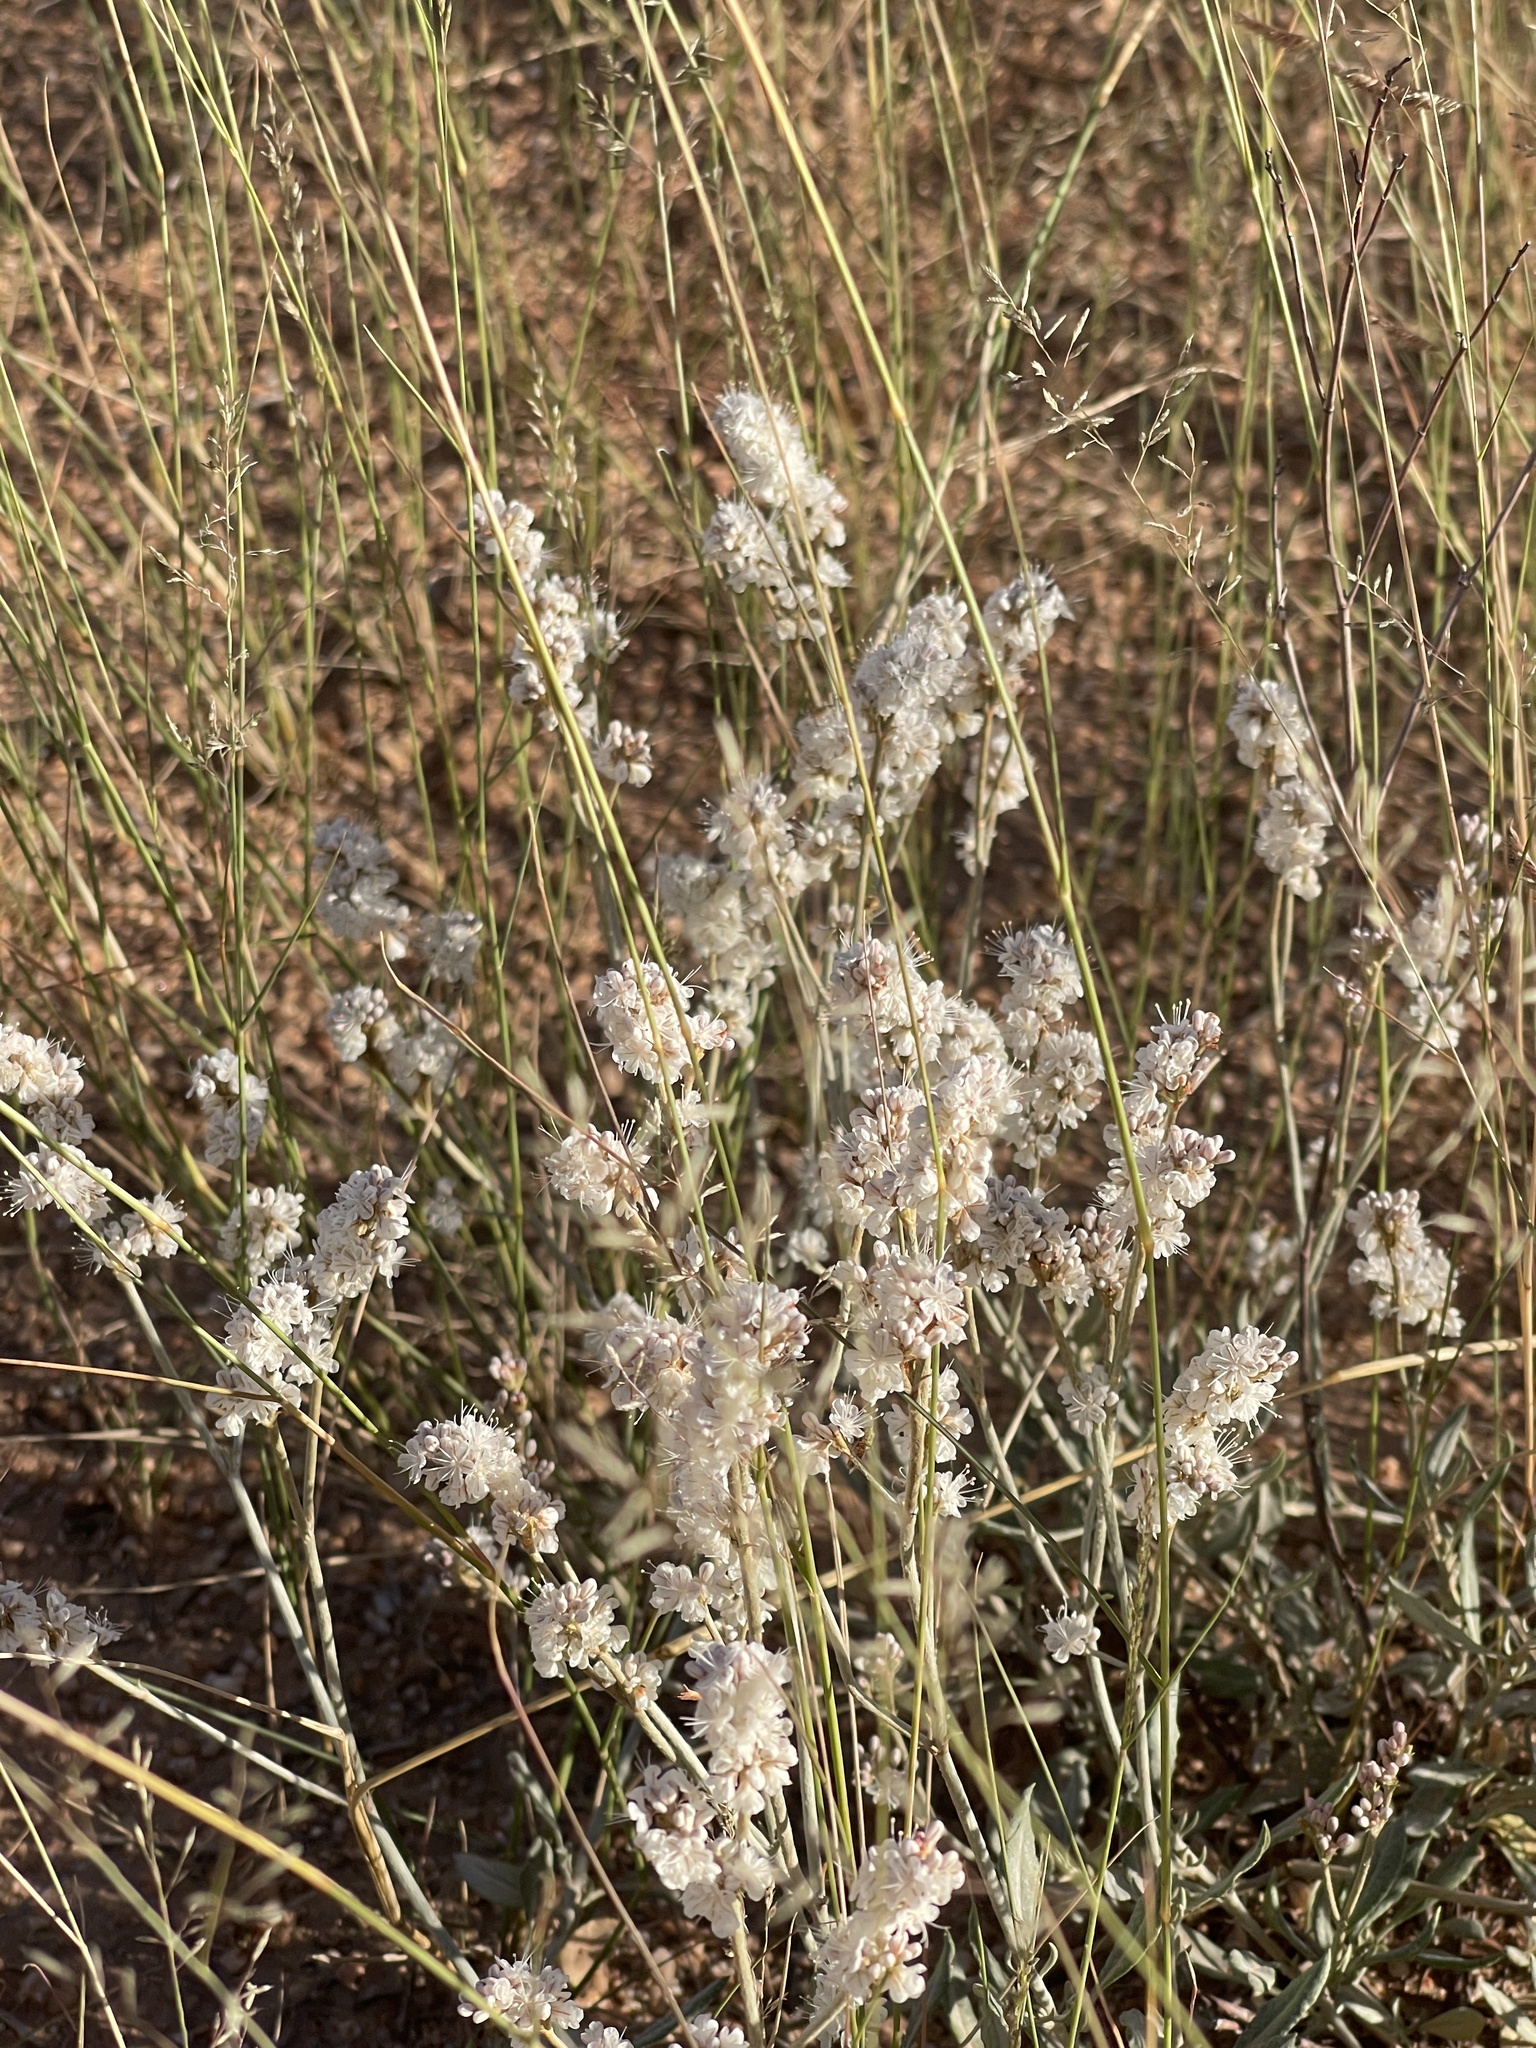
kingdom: Plantae
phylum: Tracheophyta
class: Magnoliopsida
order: Caryophyllales
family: Polygonaceae
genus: Eriogonum
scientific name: Eriogonum wrightii
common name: Bastard-sage
